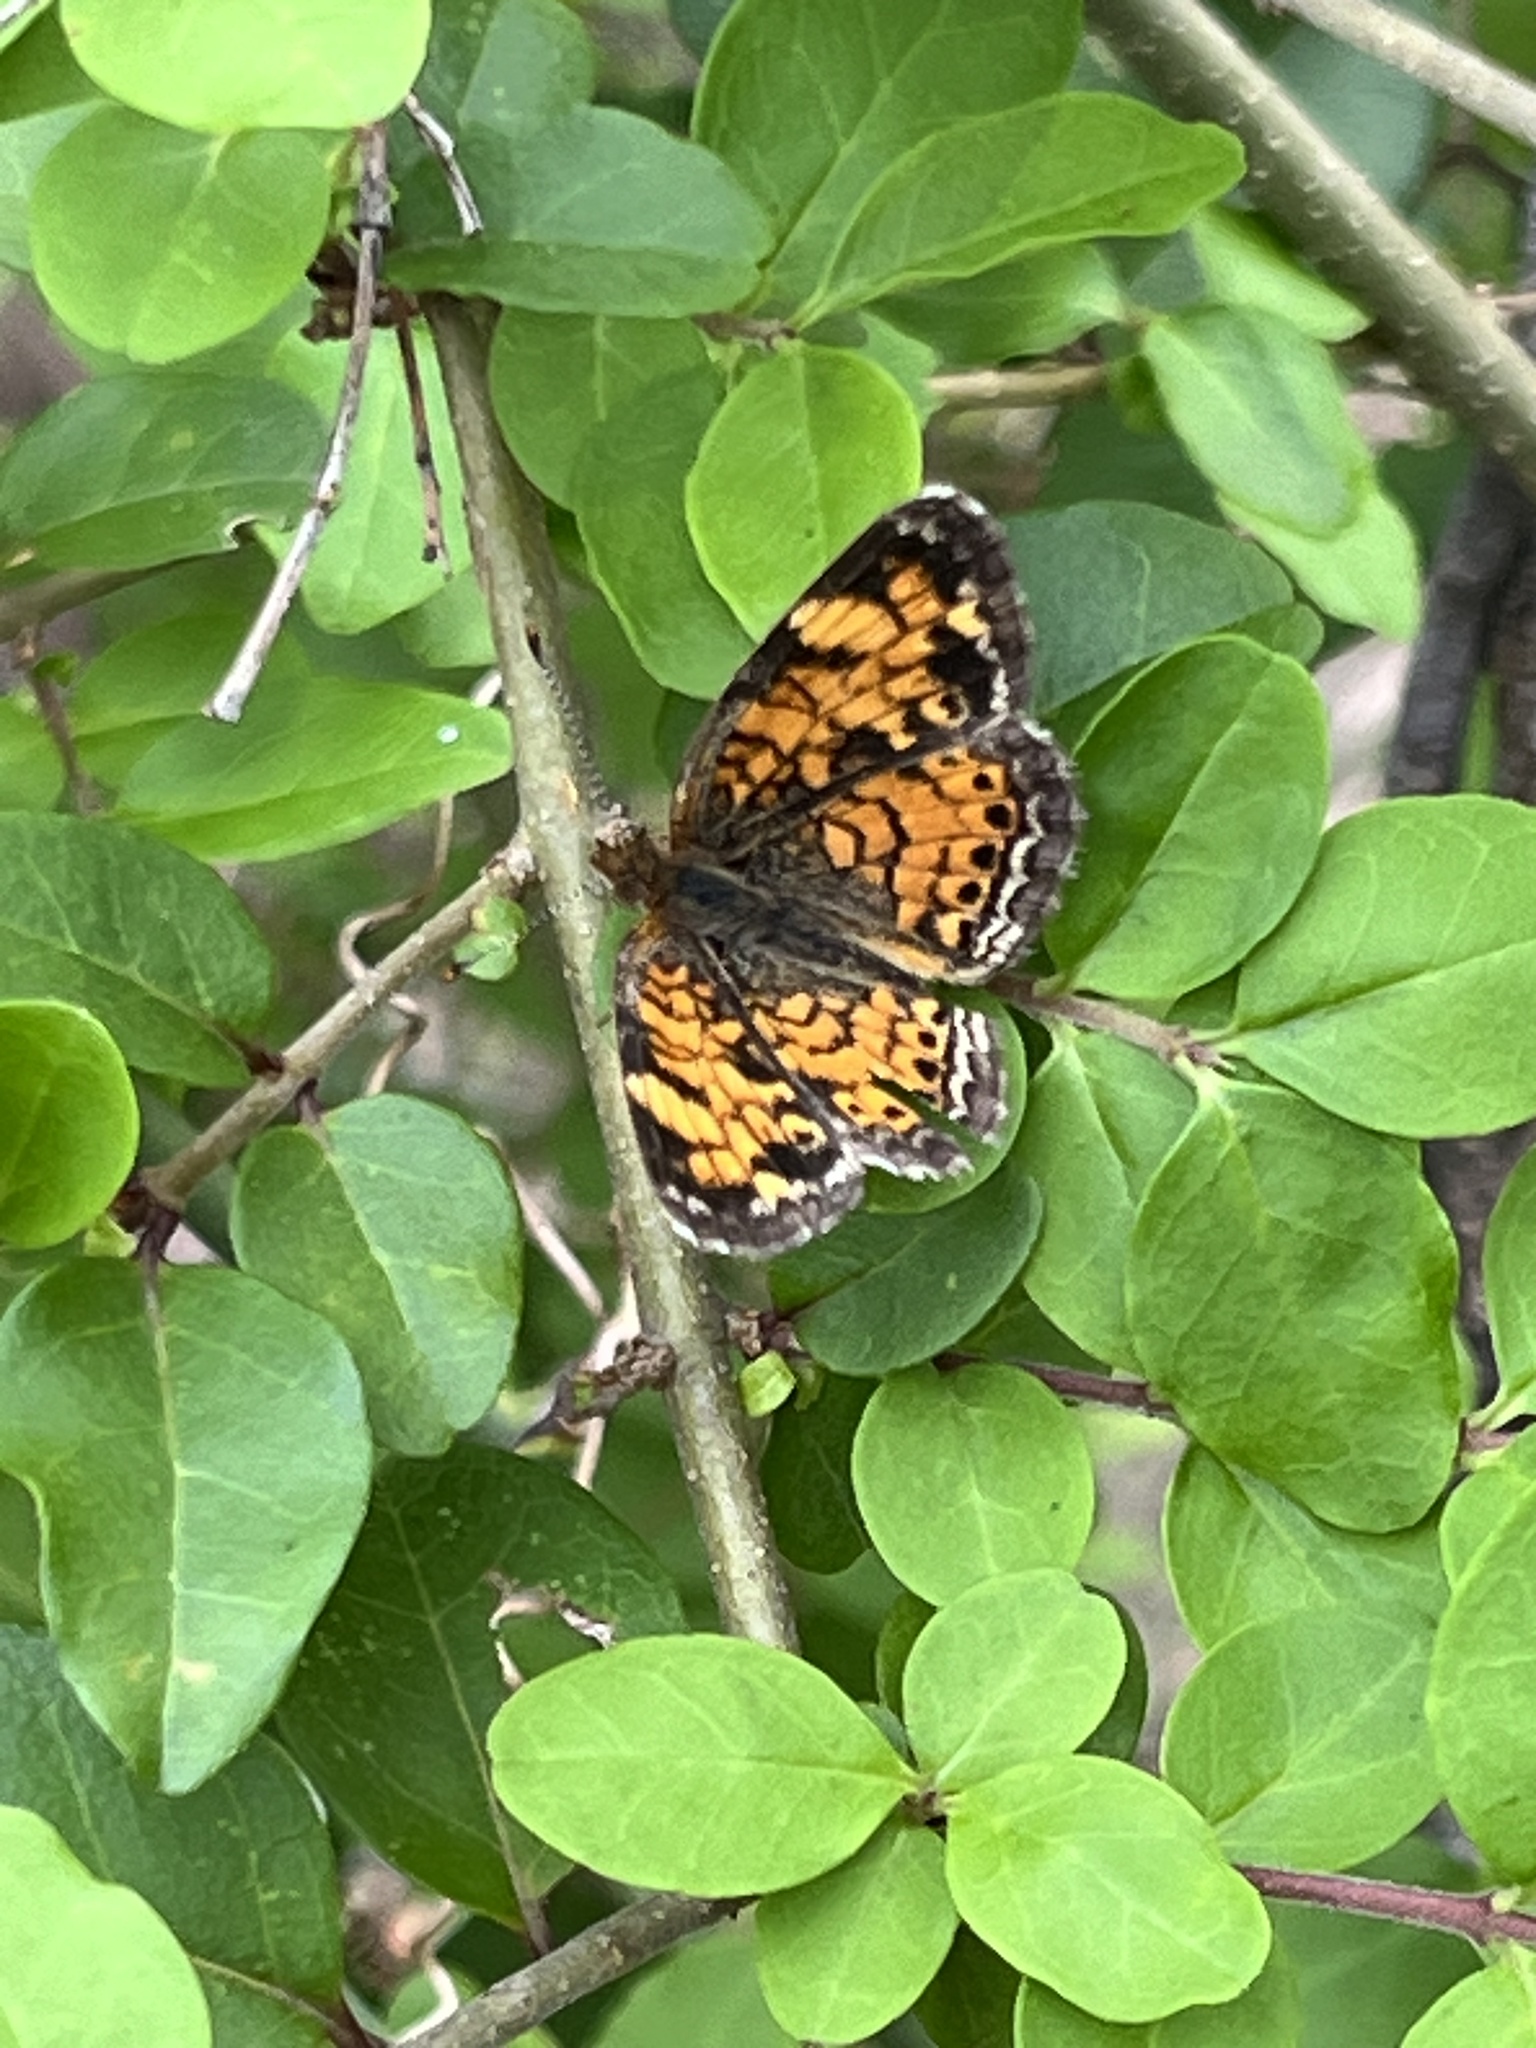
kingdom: Animalia
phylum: Arthropoda
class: Insecta
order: Lepidoptera
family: Nymphalidae
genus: Phyciodes
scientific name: Phyciodes tharos
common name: Pearl crescent
